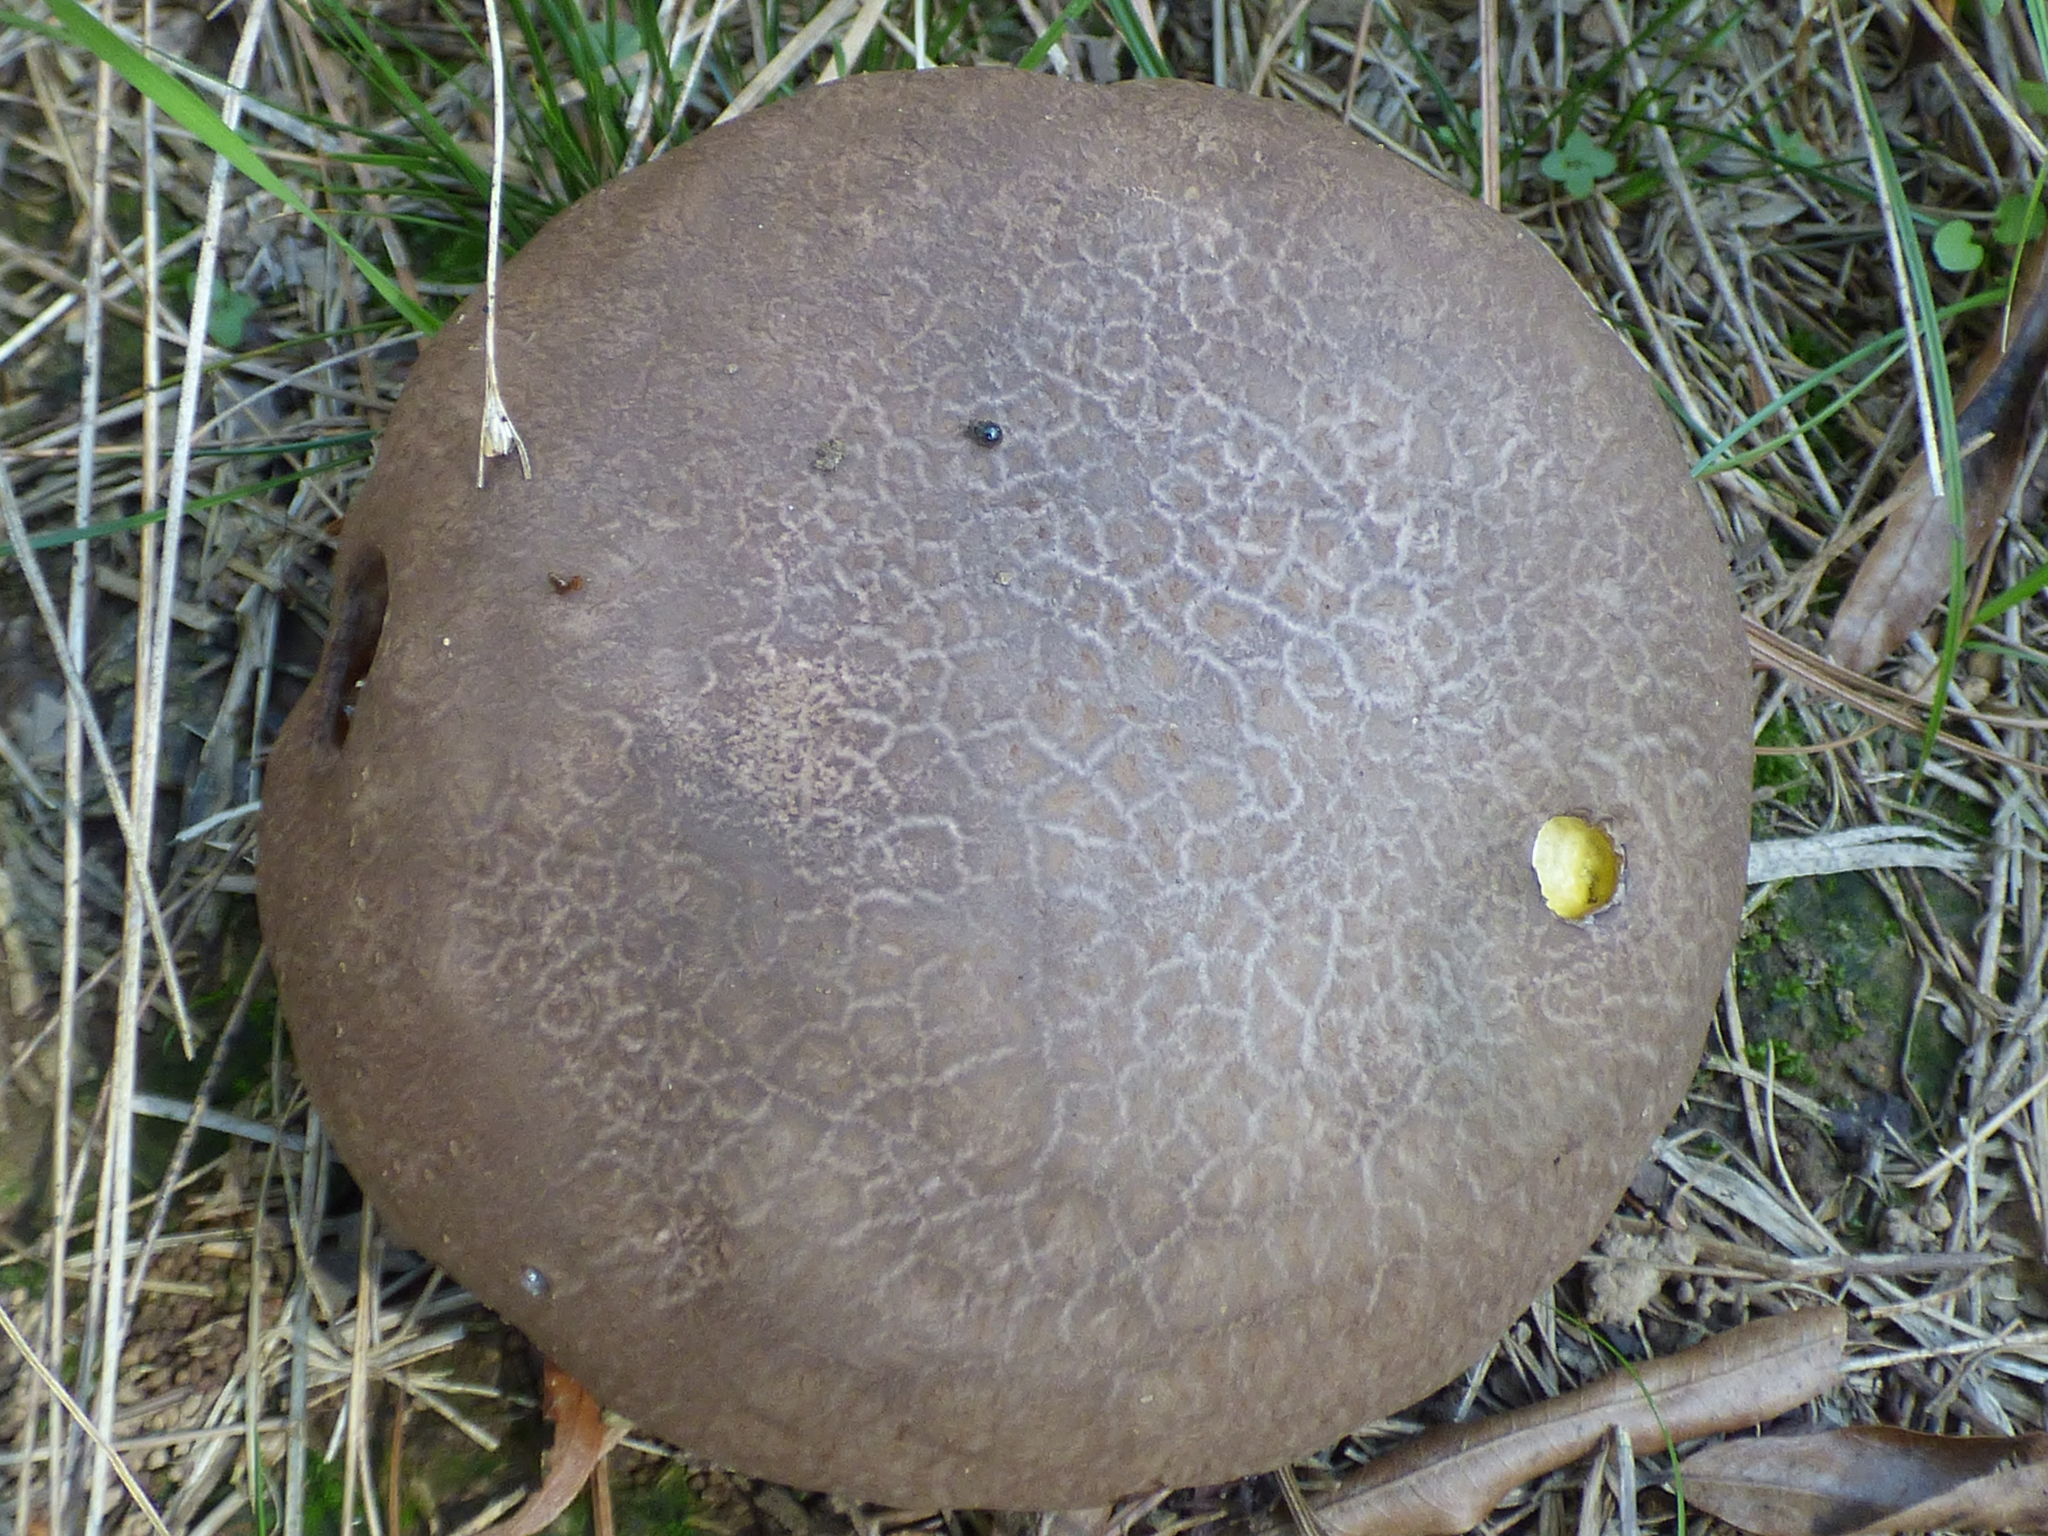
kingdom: Fungi
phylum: Basidiomycota
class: Agaricomycetes
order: Agaricales
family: Lycoperdaceae
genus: Calvatia
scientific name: Calvatia cyathiformis
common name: Purple-spored puffball
